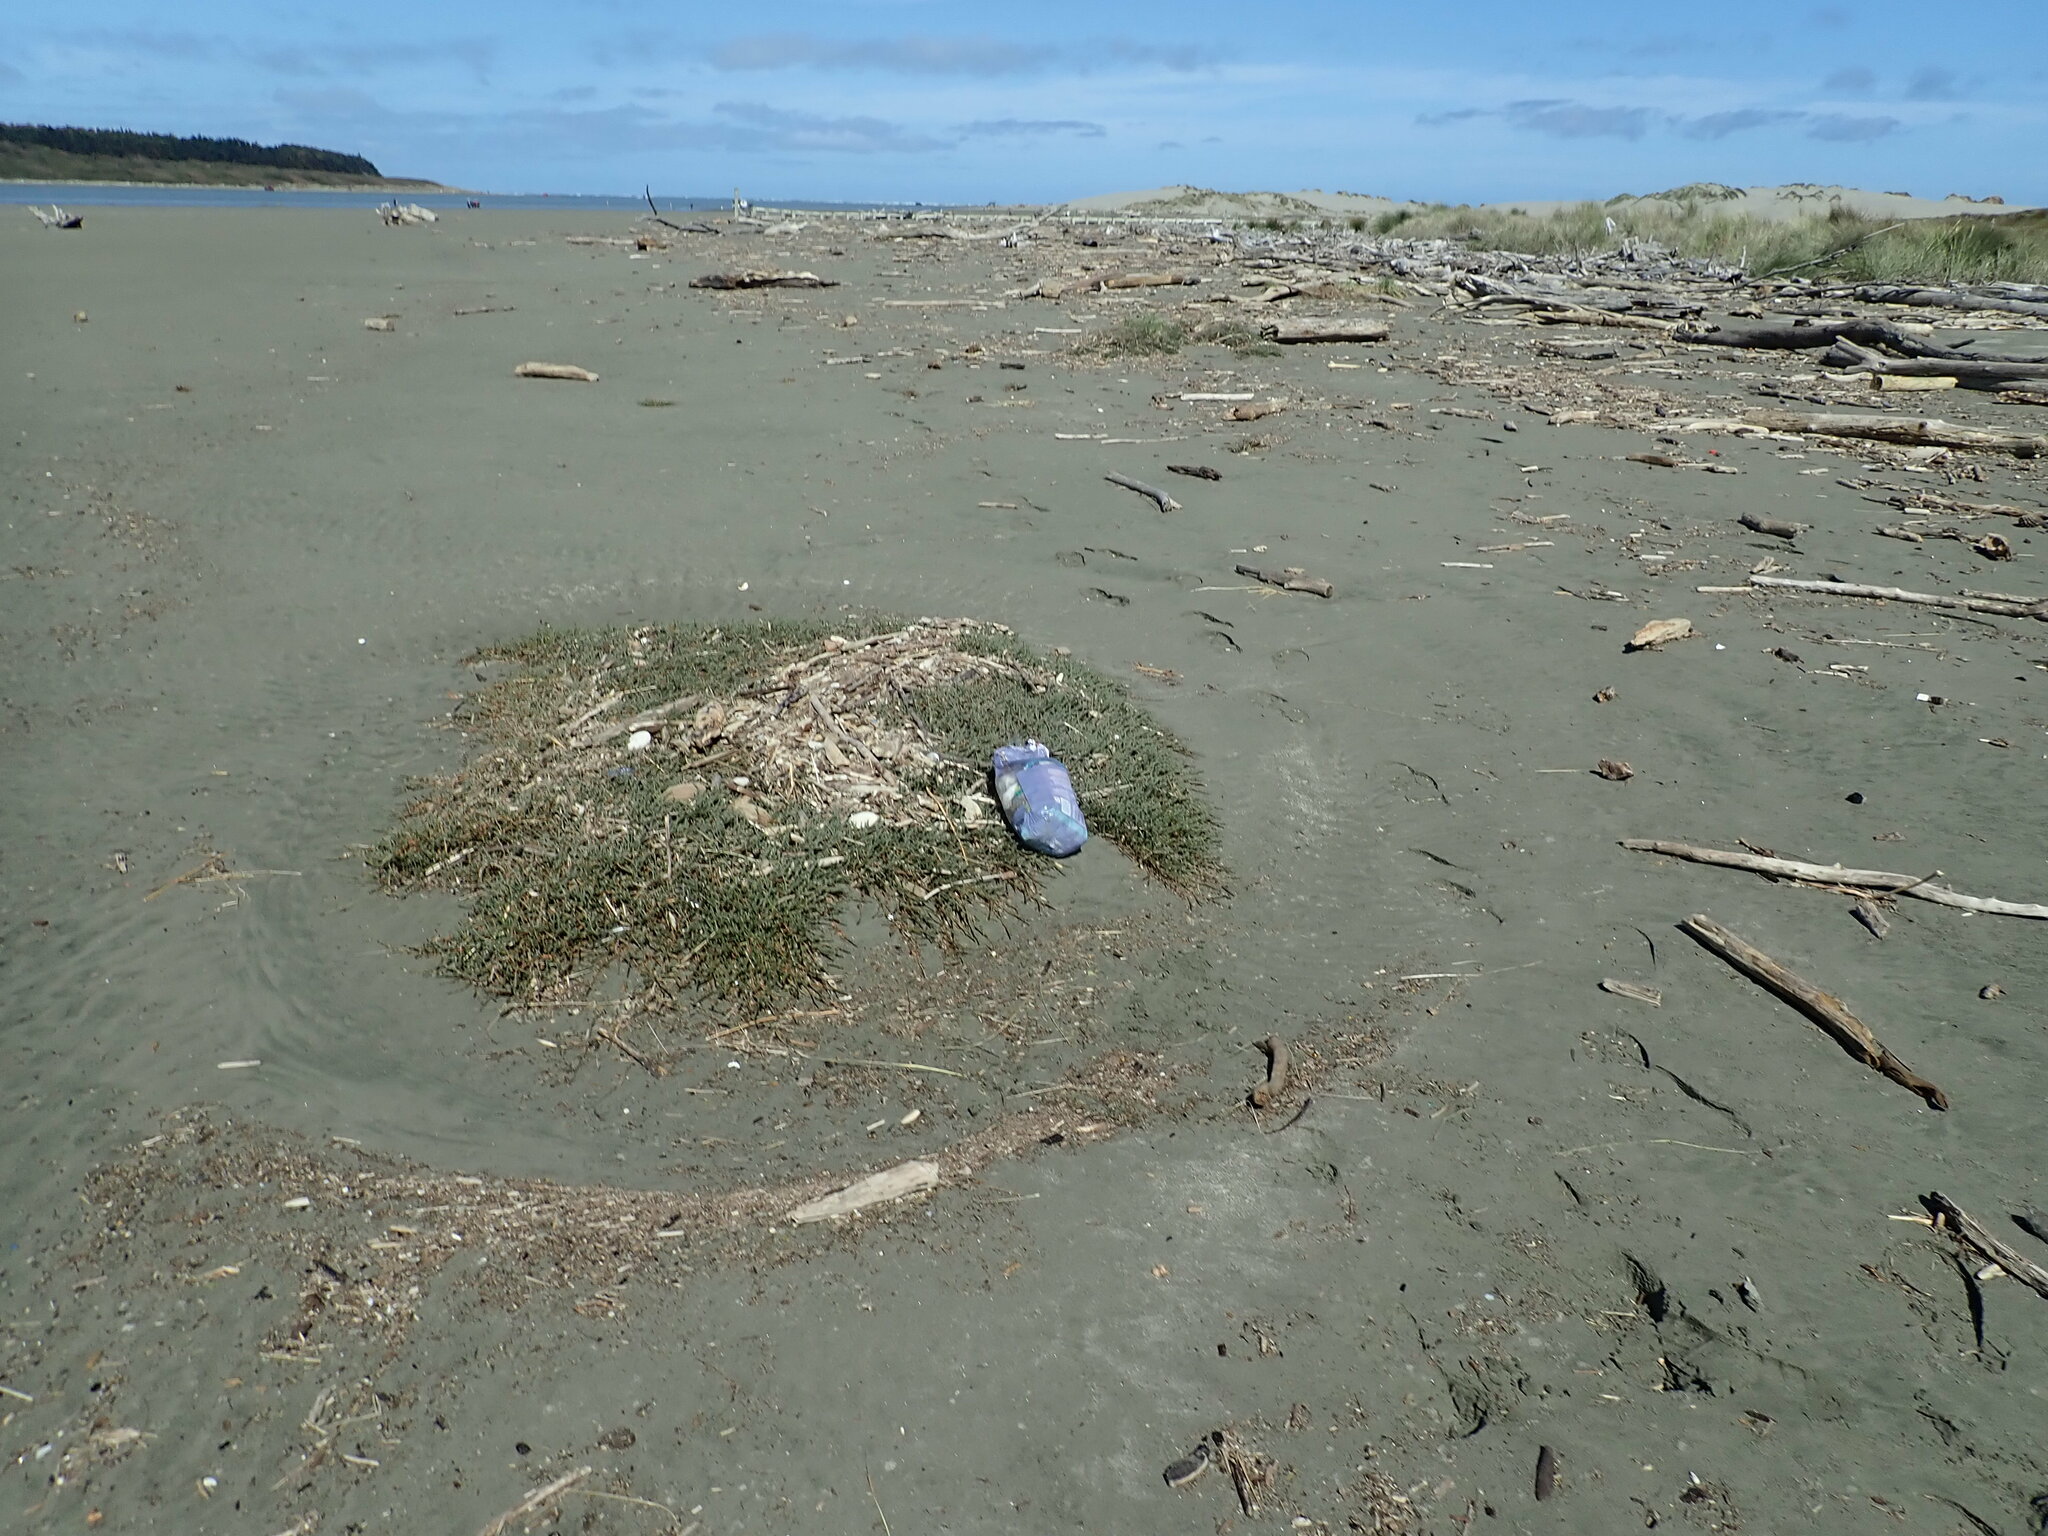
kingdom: Plantae
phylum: Tracheophyta
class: Magnoliopsida
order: Caryophyllales
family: Amaranthaceae
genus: Salicornia
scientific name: Salicornia quinqueflora
